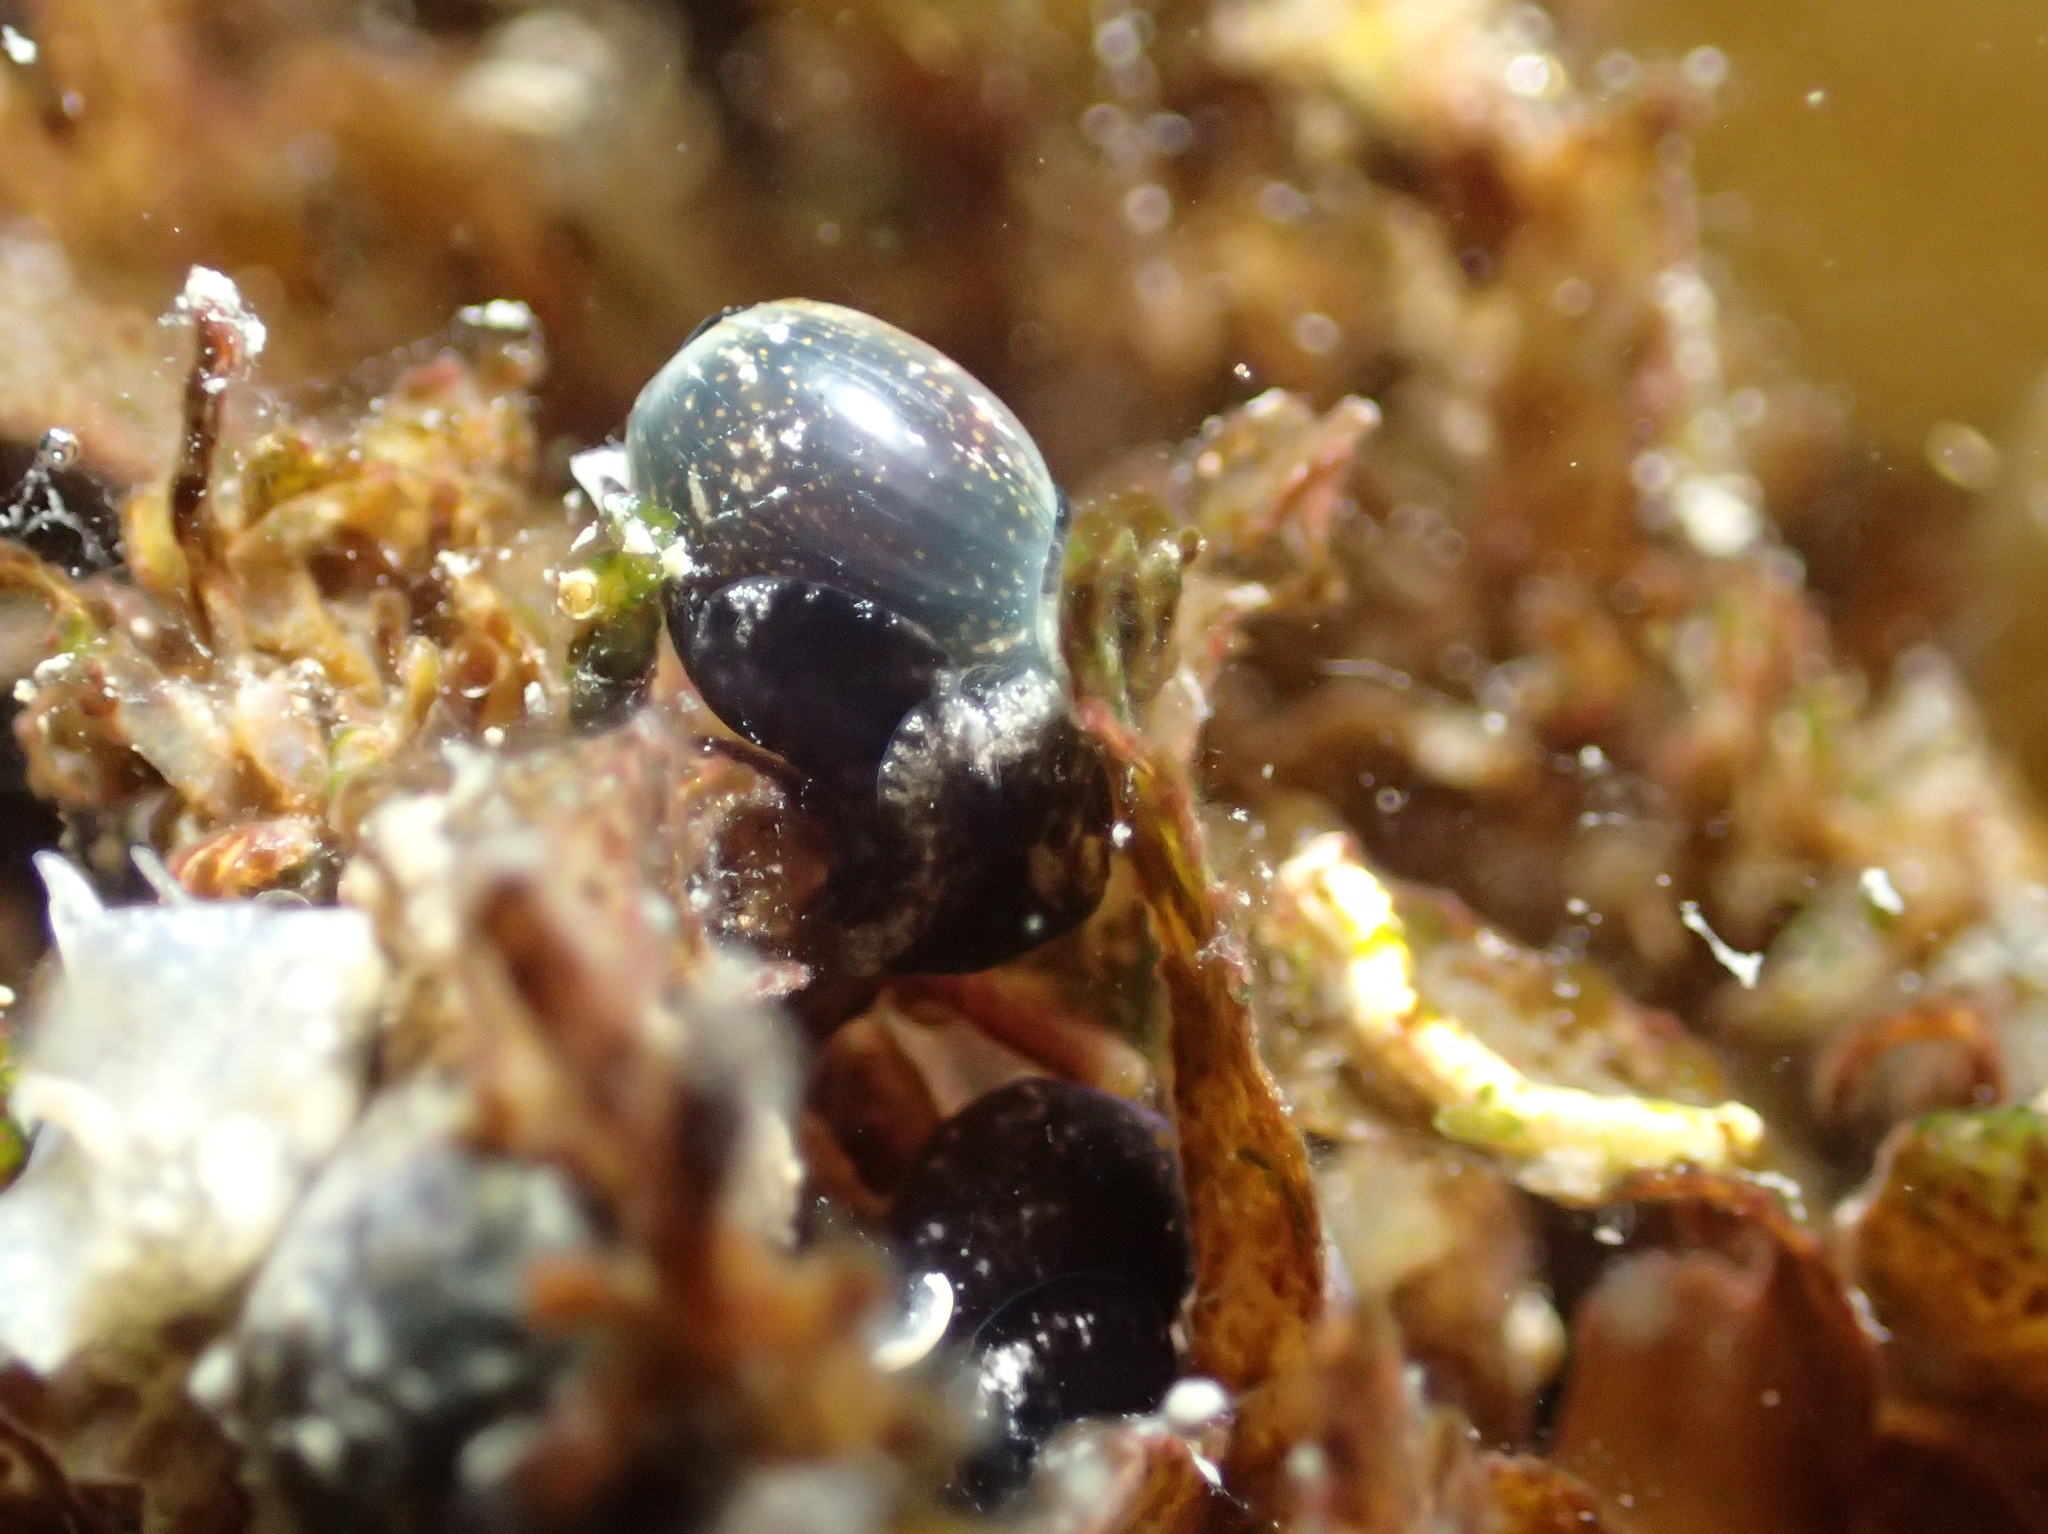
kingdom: Animalia
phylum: Mollusca
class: Gastropoda
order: Cephalaspidea
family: Haminoeidae
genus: Haminoea
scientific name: Haminoea exigua
